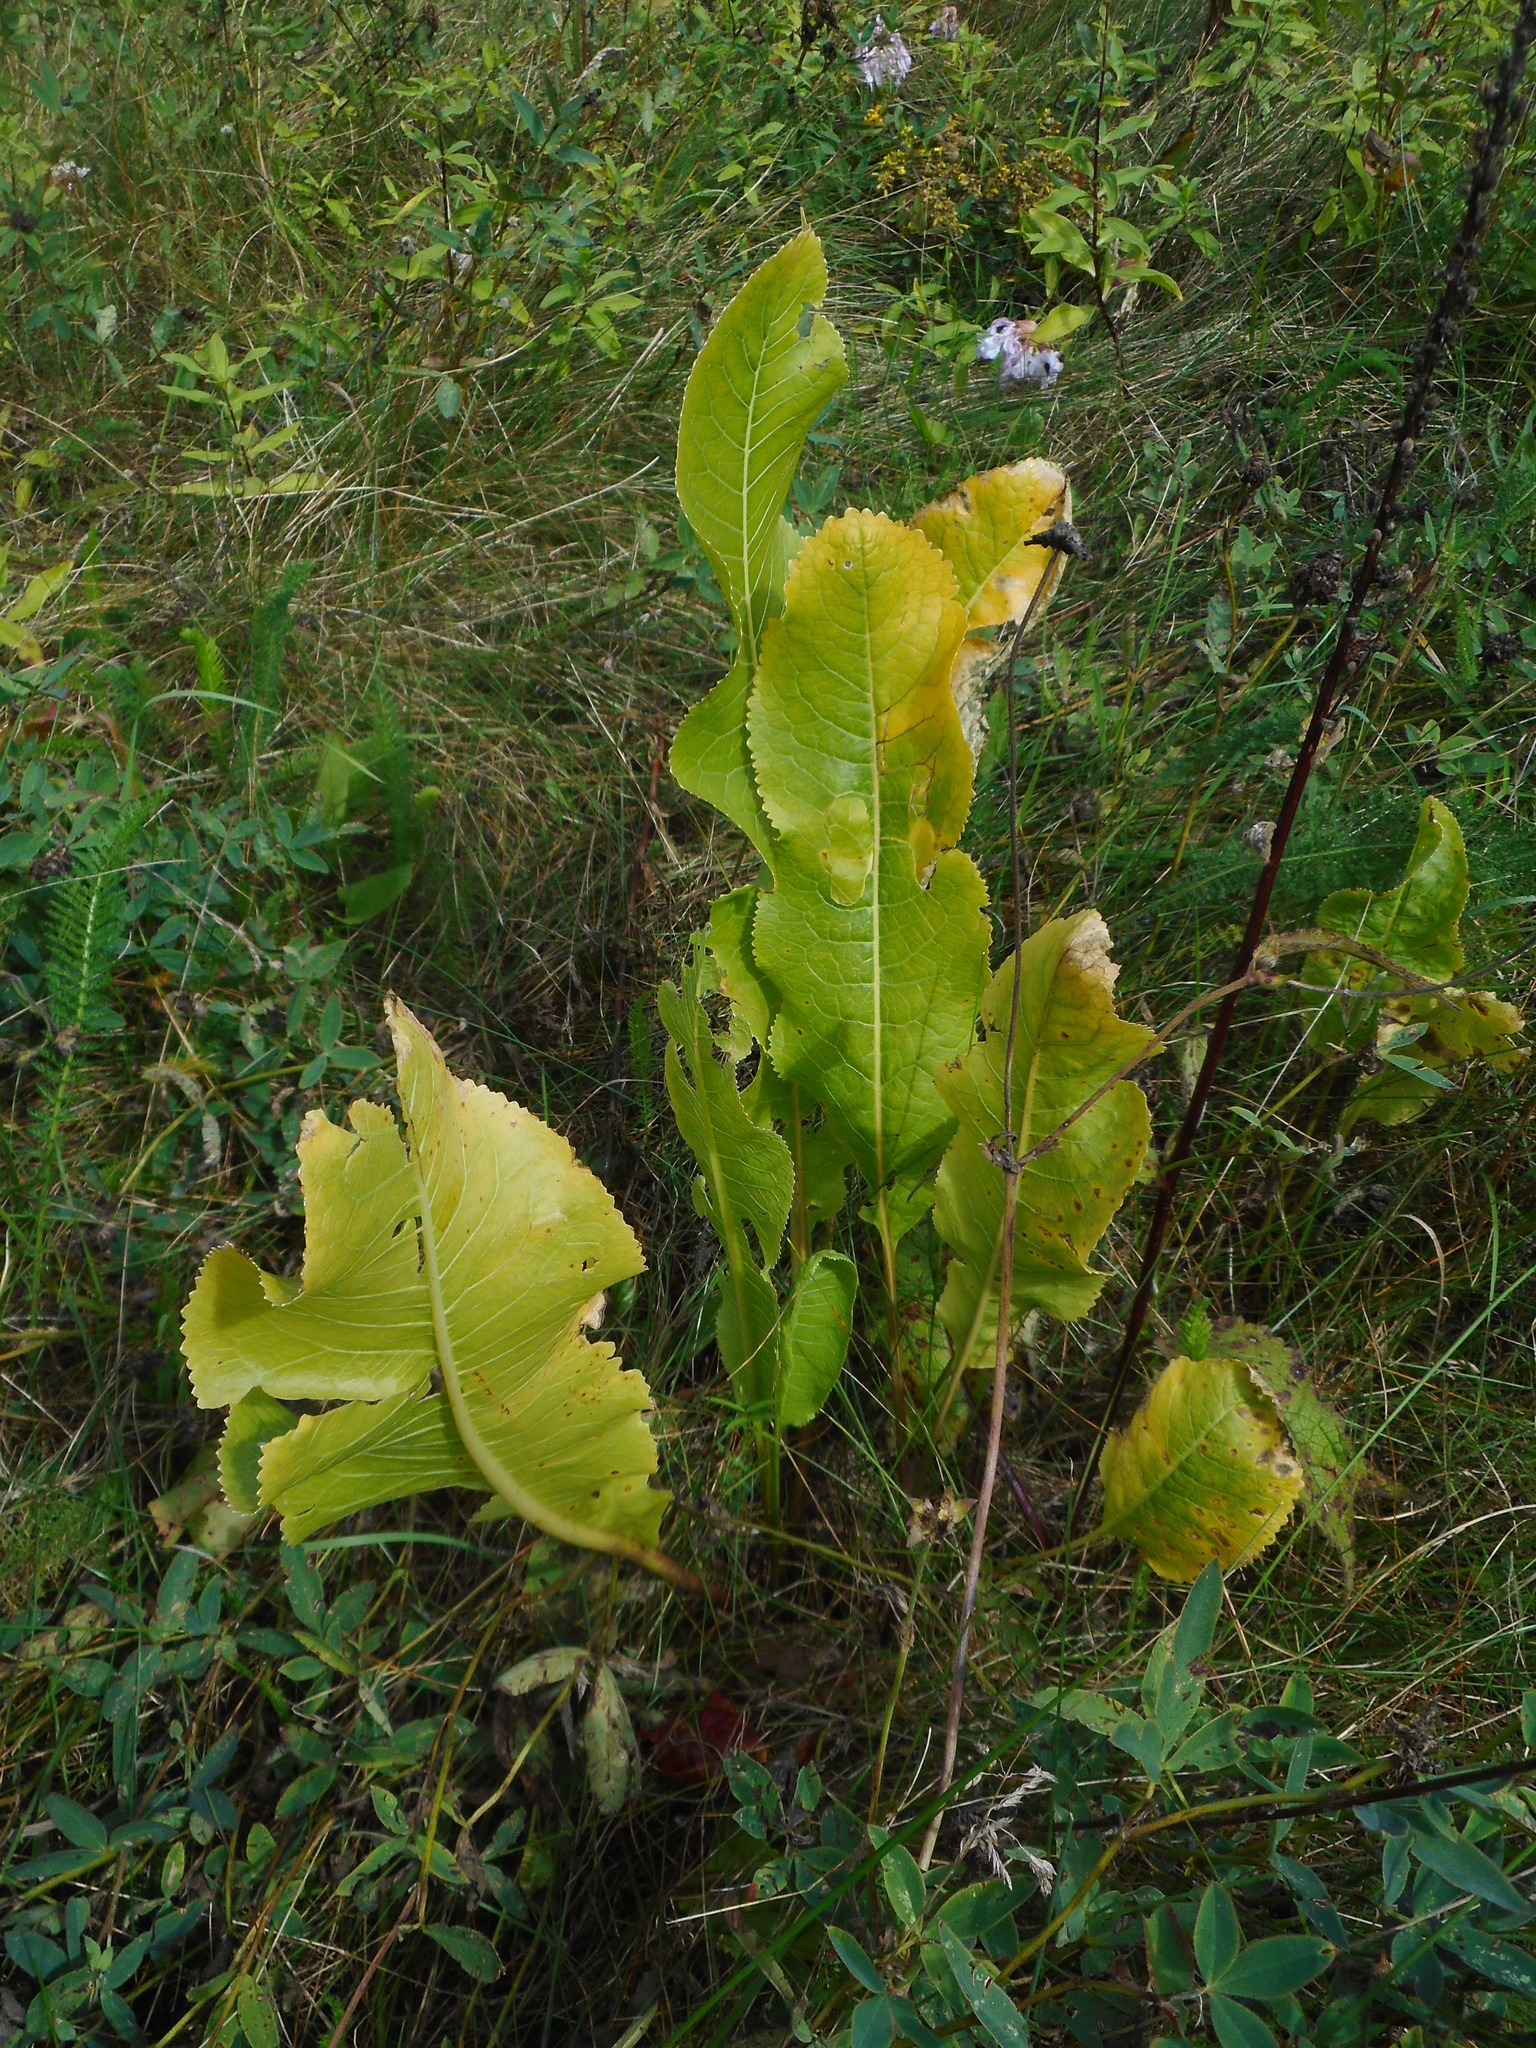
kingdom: Plantae
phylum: Tracheophyta
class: Magnoliopsida
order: Brassicales
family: Brassicaceae
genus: Armoracia
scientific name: Armoracia rusticana
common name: Horseradish
